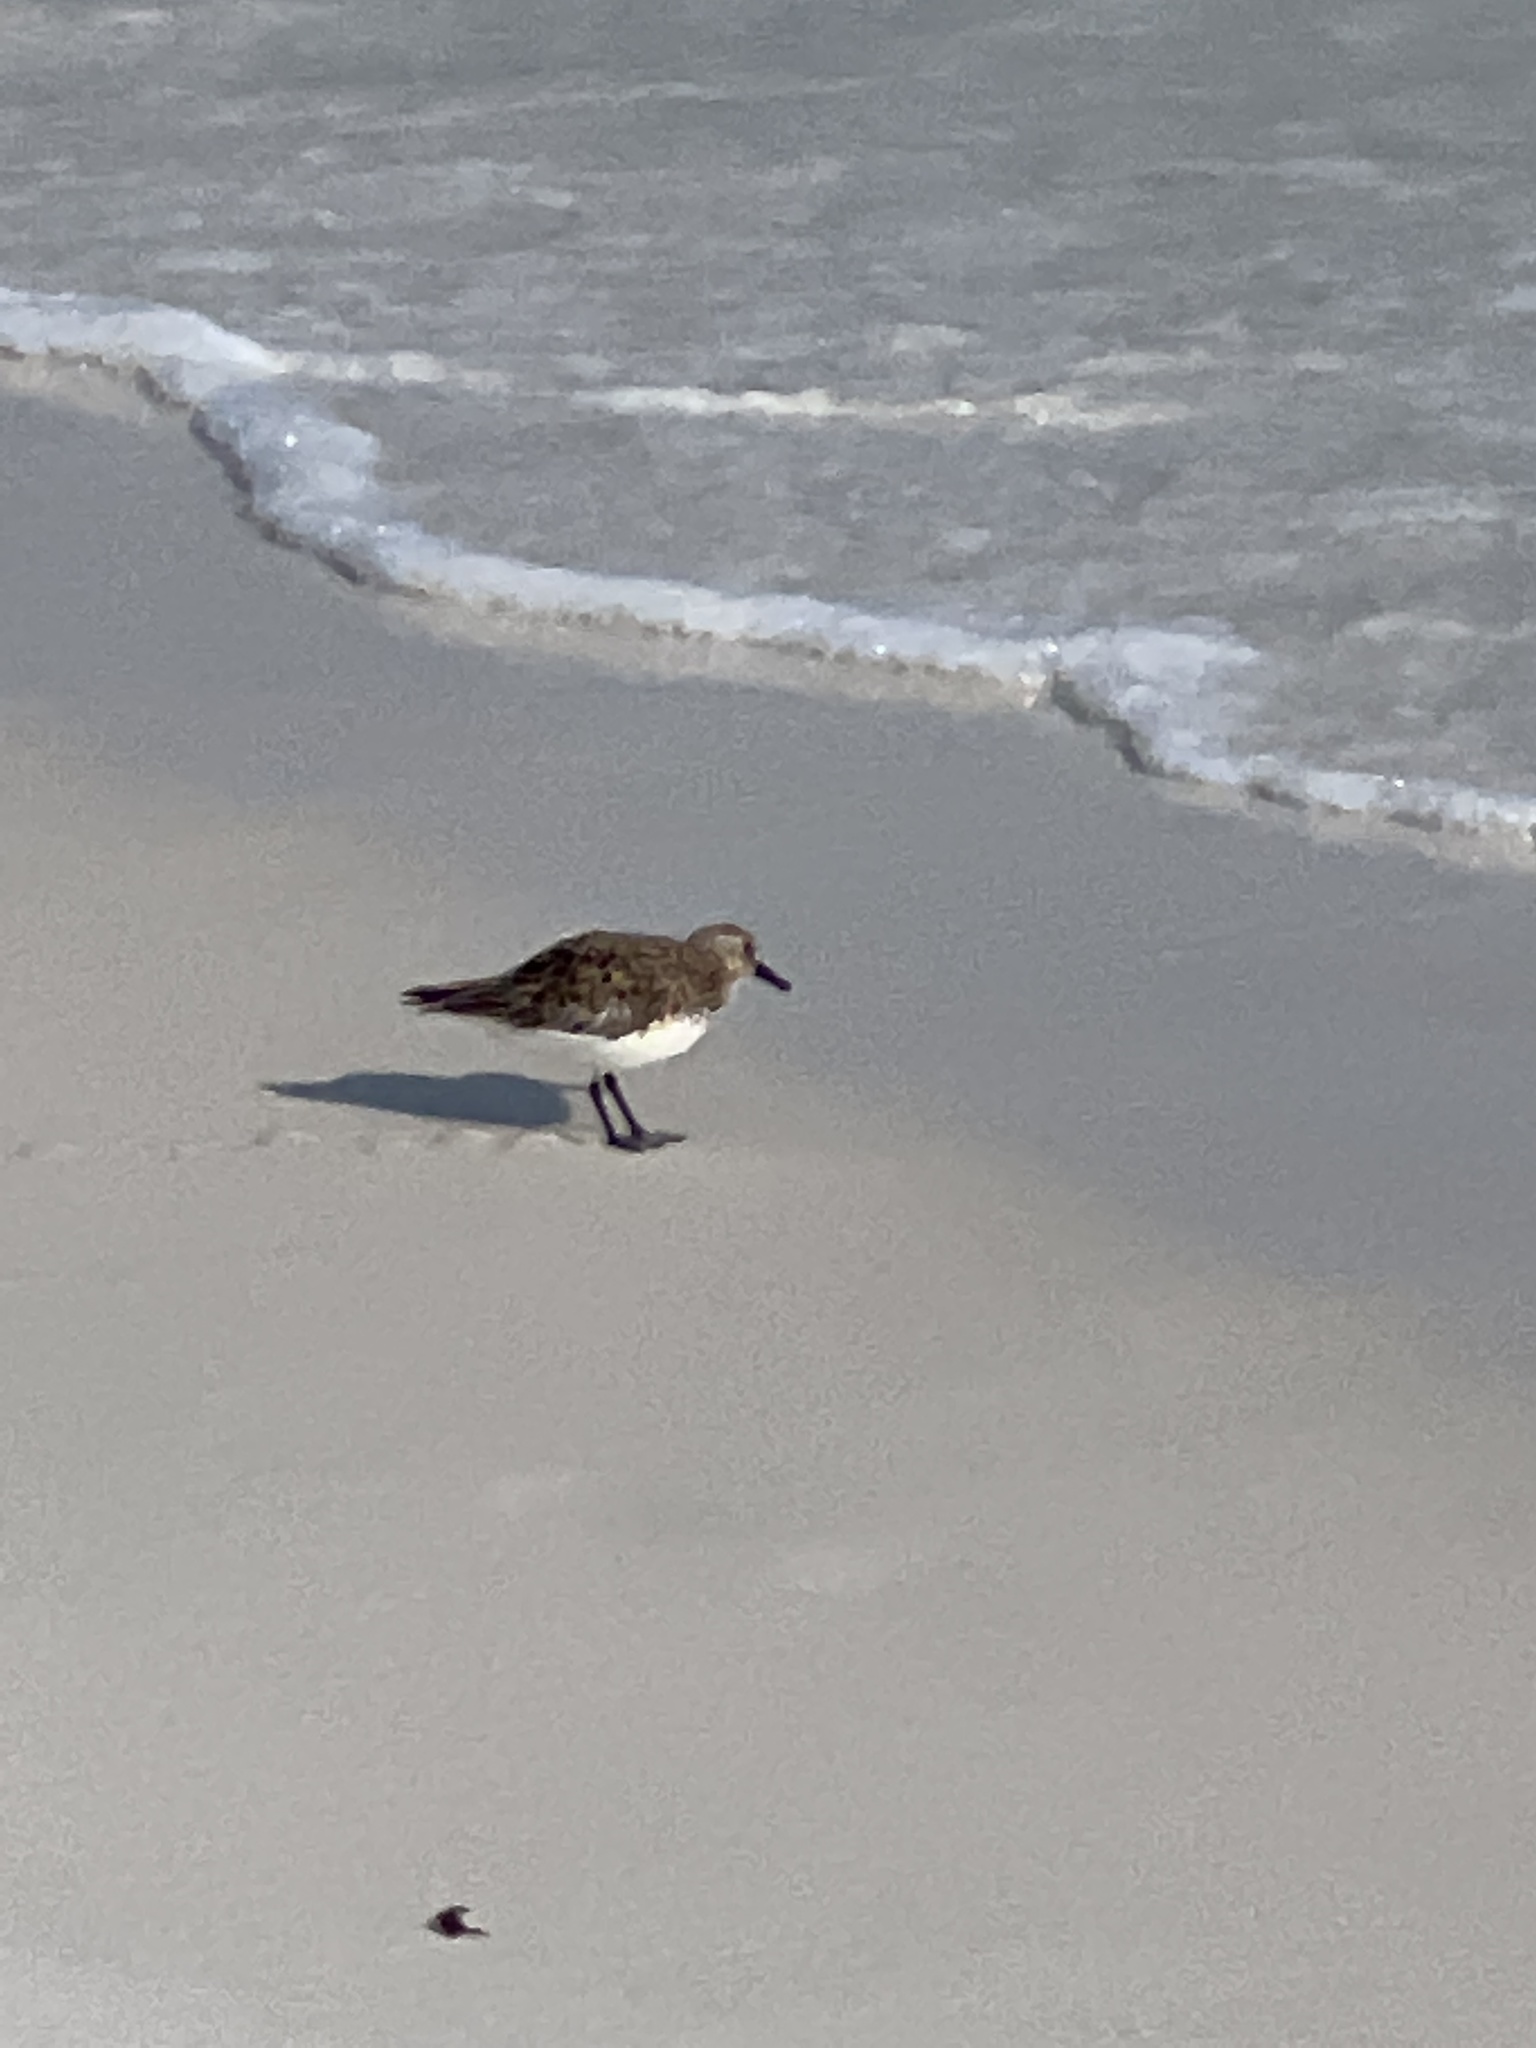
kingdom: Animalia
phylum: Chordata
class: Aves
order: Charadriiformes
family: Scolopacidae
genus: Calidris
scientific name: Calidris alba
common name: Sanderling
